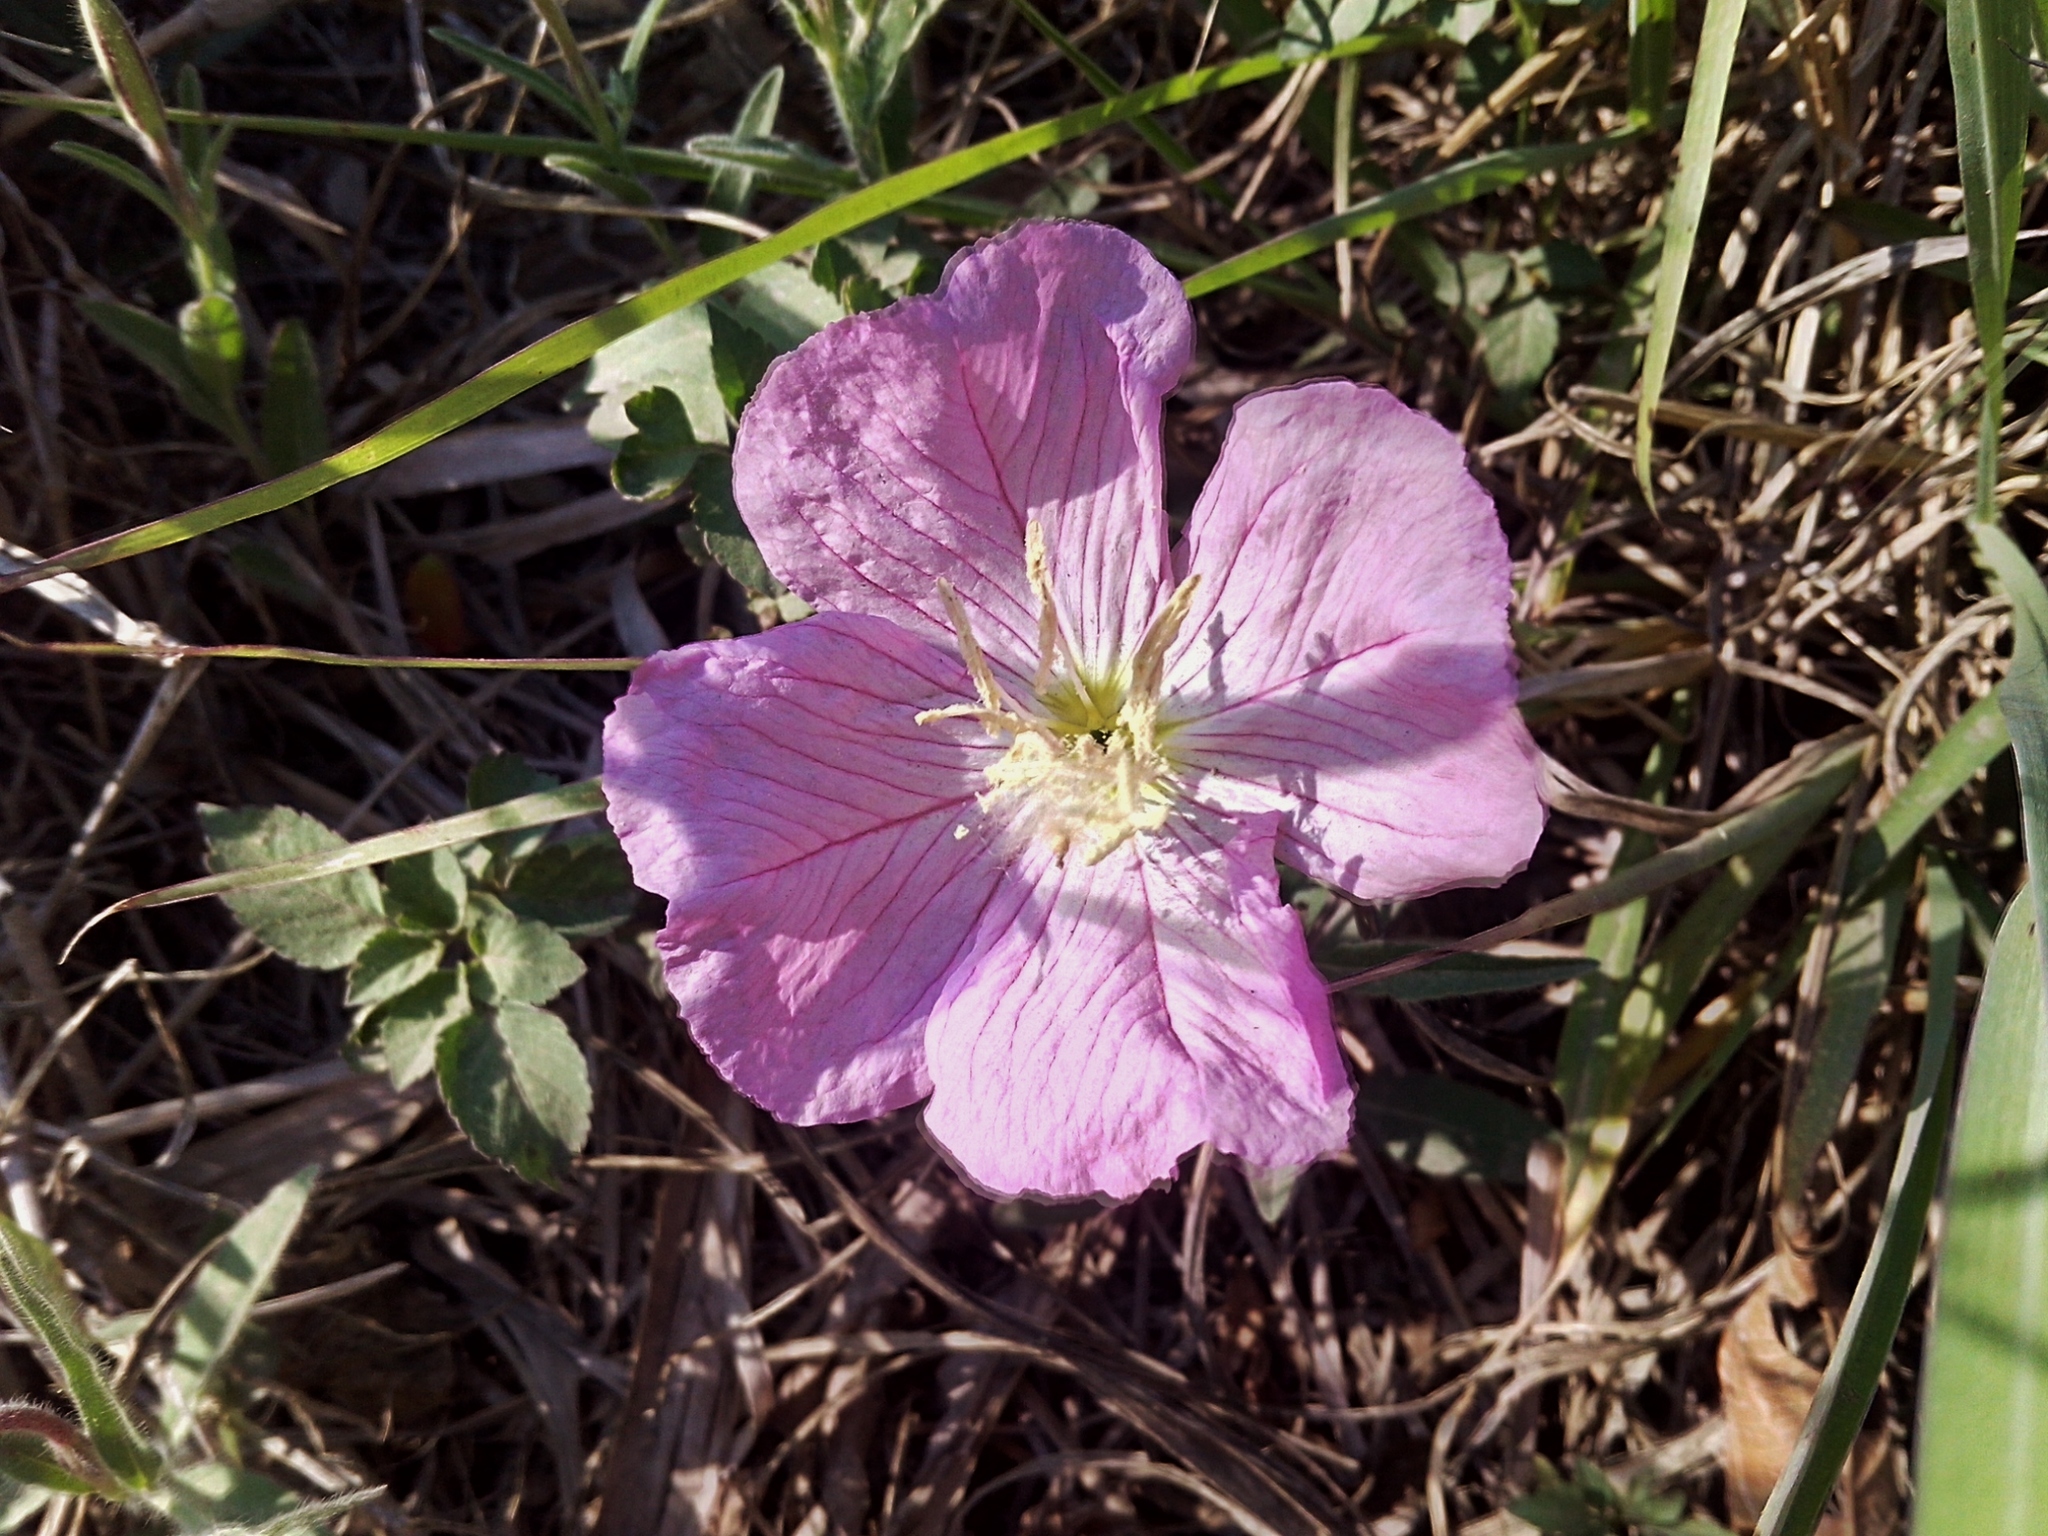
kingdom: Plantae
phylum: Tracheophyta
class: Magnoliopsida
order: Myrtales
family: Onagraceae
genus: Oenothera
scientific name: Oenothera speciosa
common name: White evening-primrose
